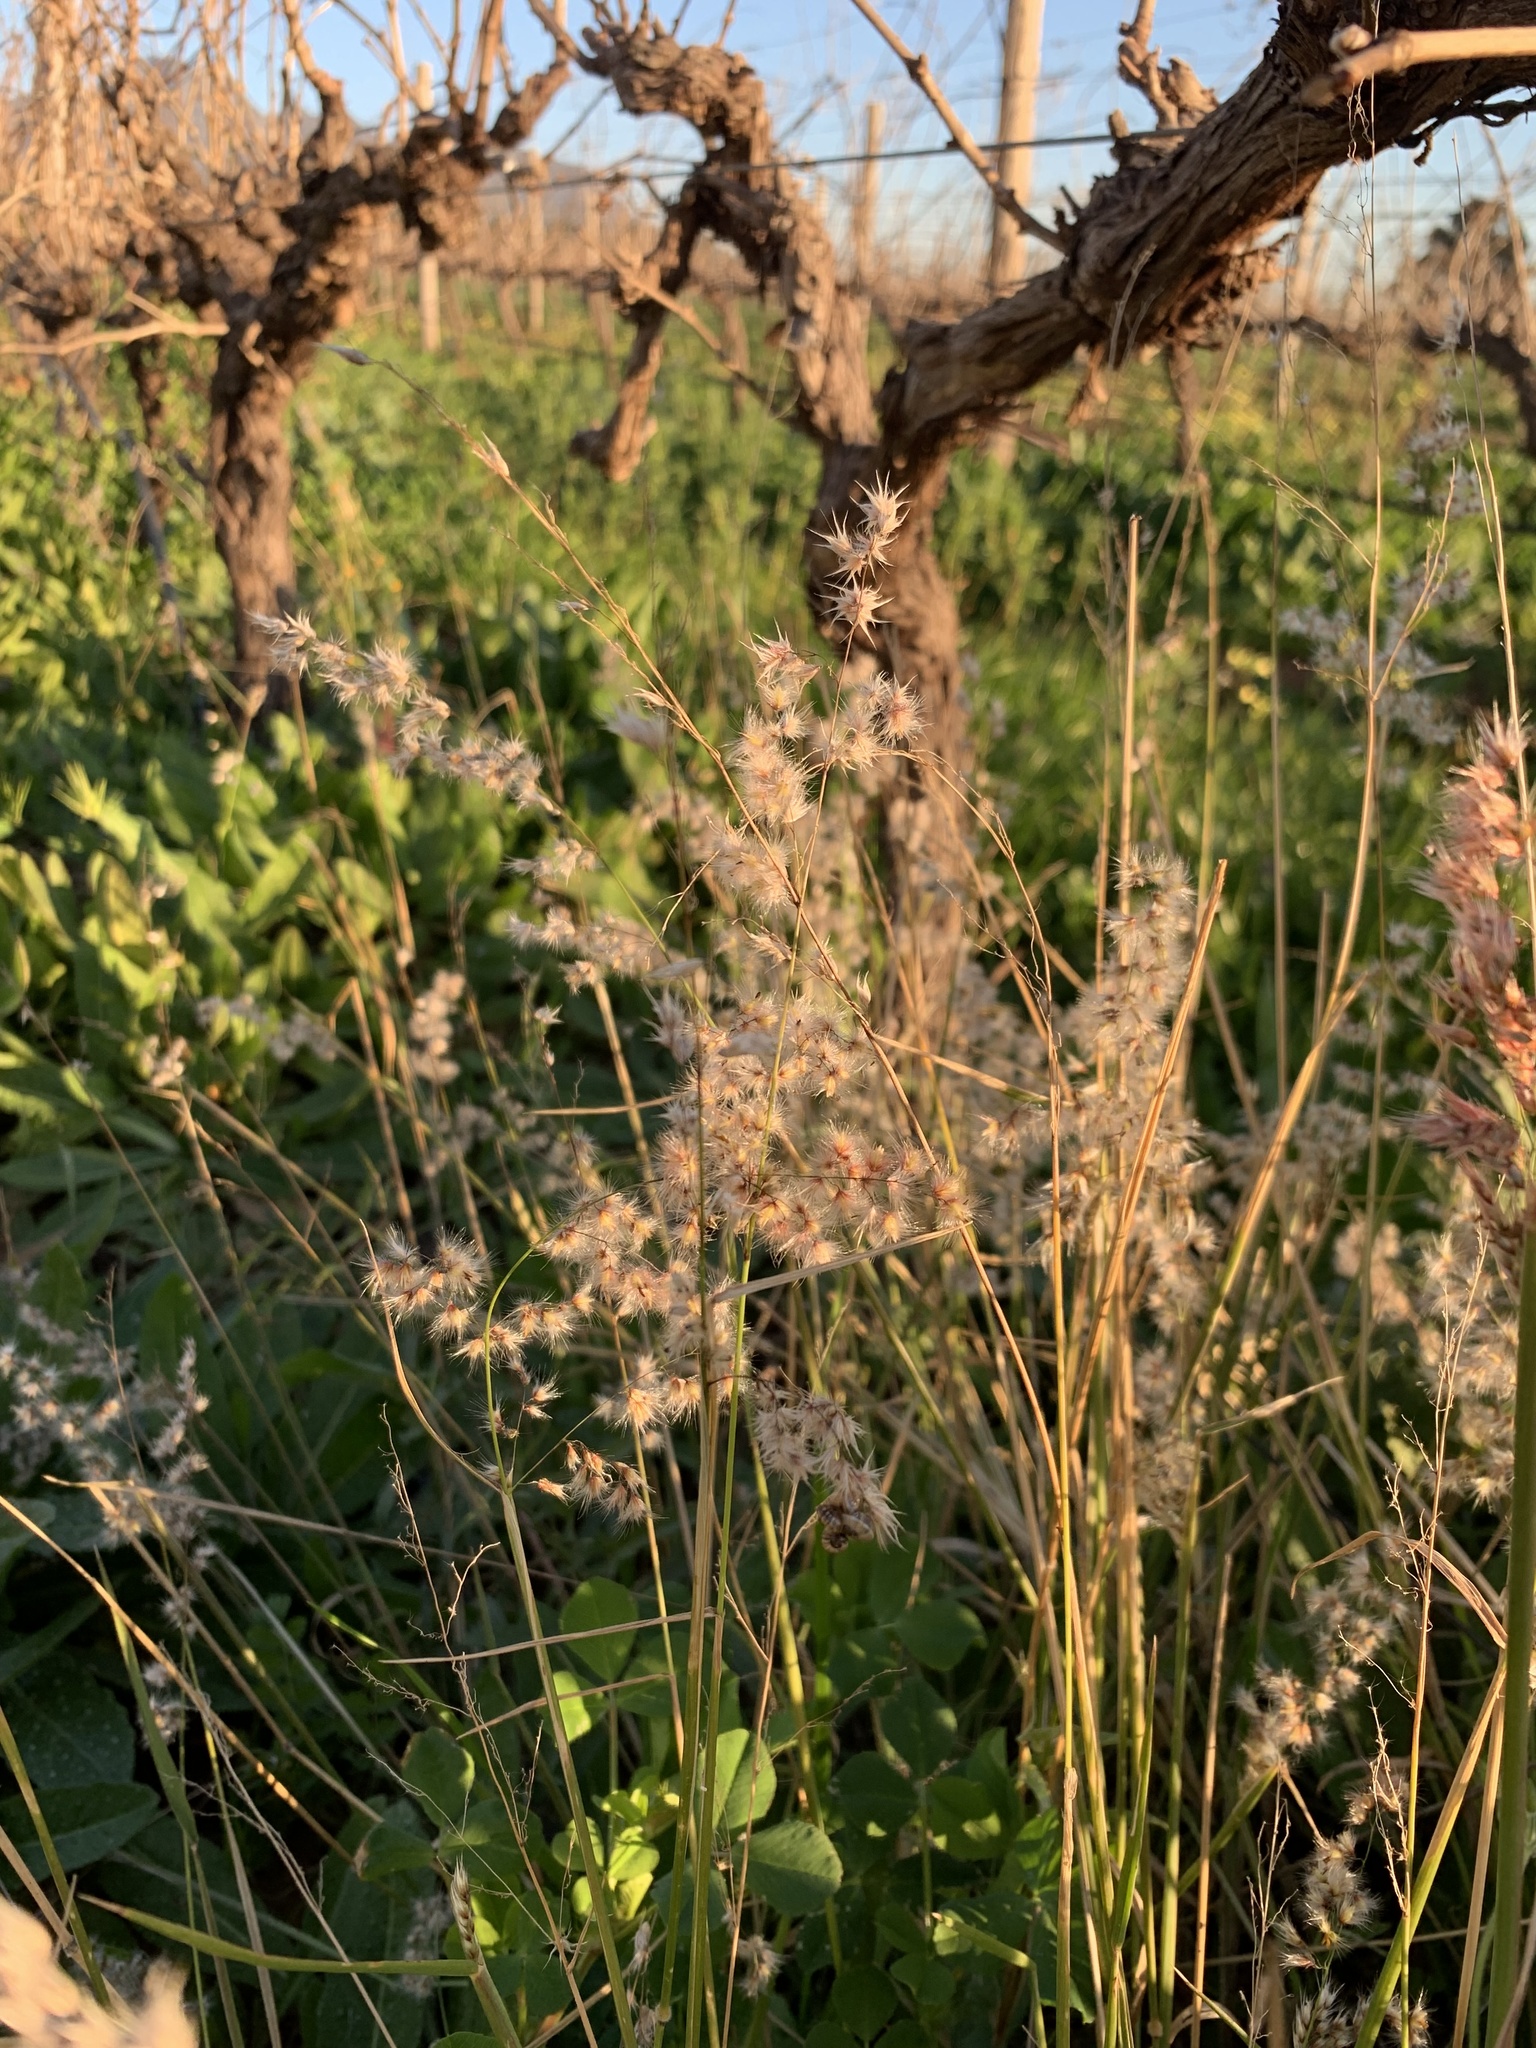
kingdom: Plantae
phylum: Tracheophyta
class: Liliopsida
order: Poales
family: Poaceae
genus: Melinis
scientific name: Melinis repens
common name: Rose natal grass
